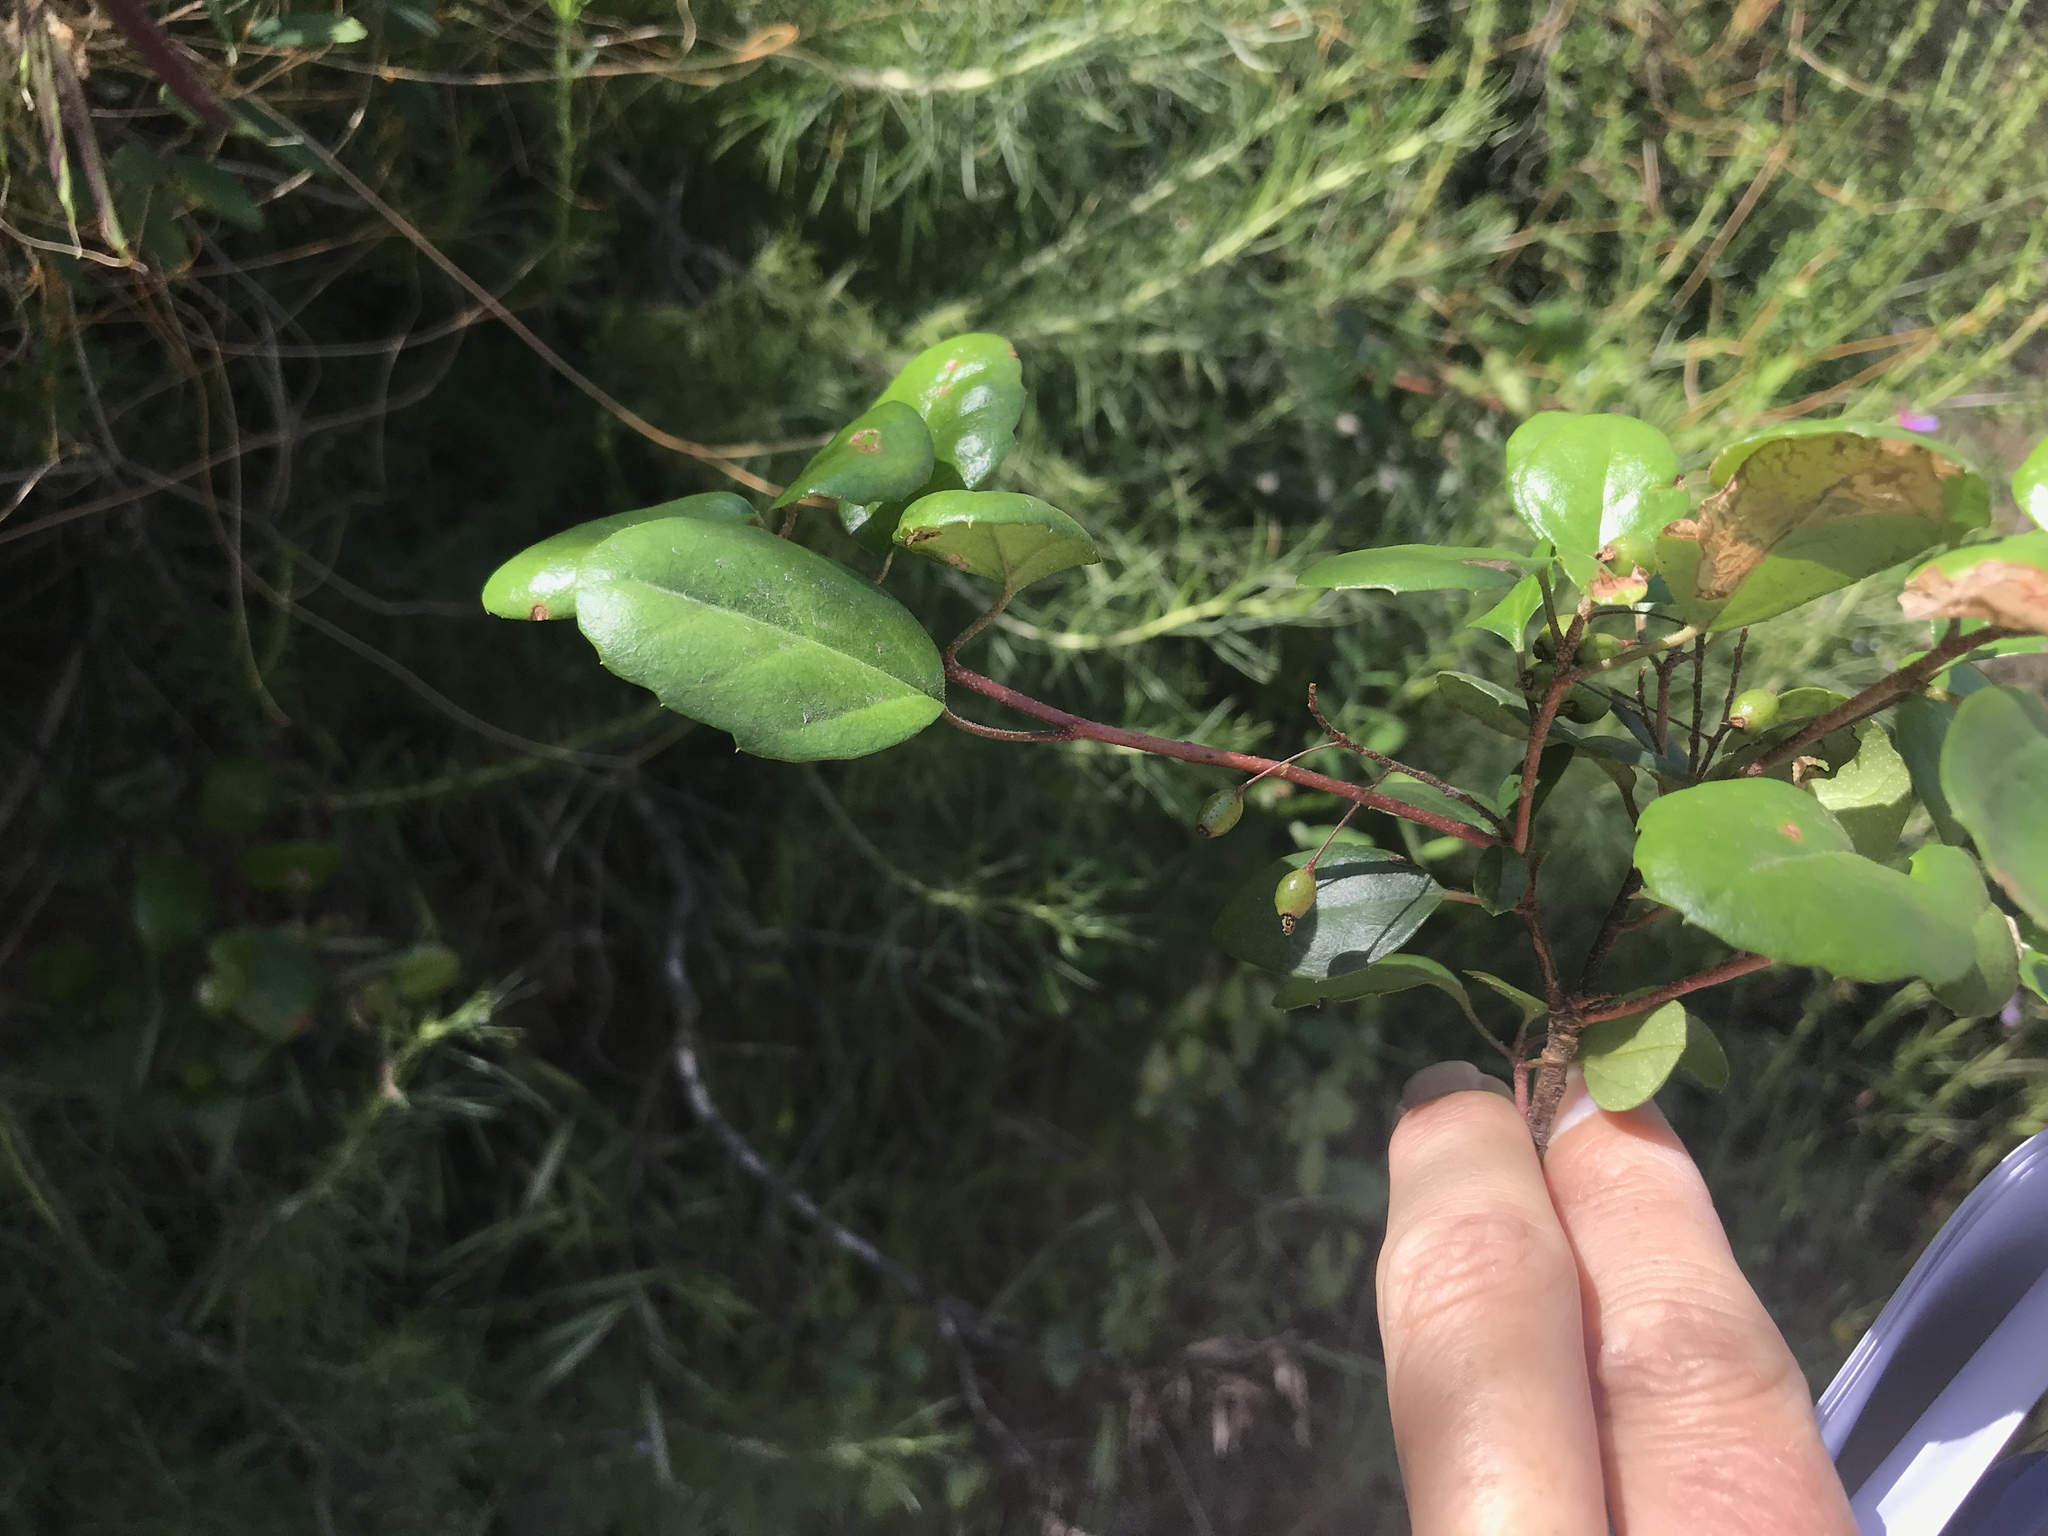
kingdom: Plantae
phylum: Tracheophyta
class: Magnoliopsida
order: Saxifragales
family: Grossulariaceae
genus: Ribes
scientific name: Ribes viburnifolium
